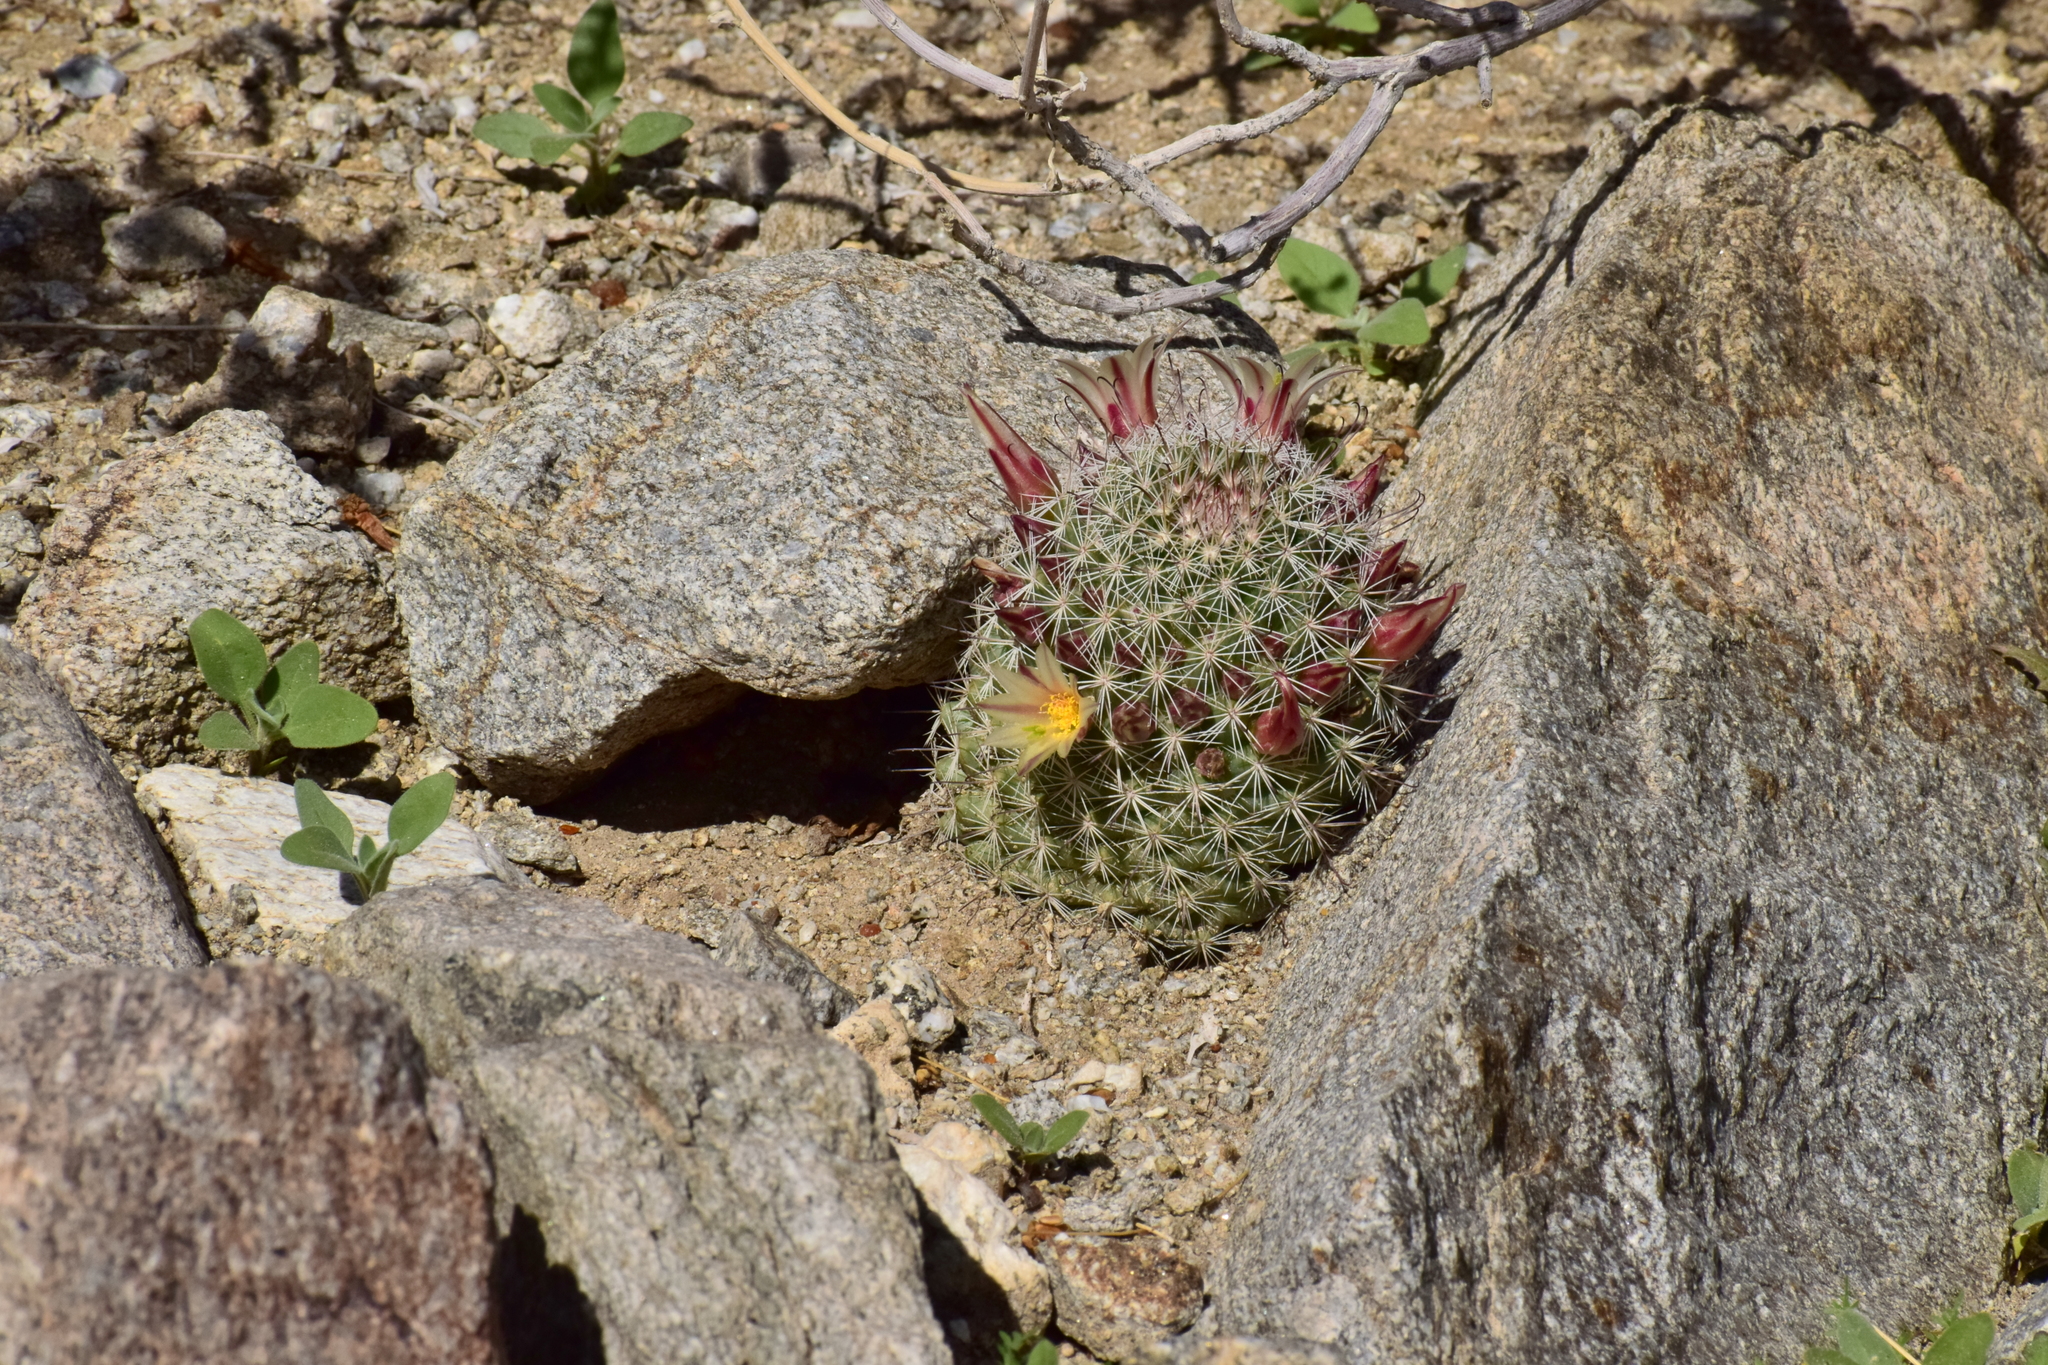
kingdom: Plantae
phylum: Tracheophyta
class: Magnoliopsida
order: Caryophyllales
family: Cactaceae
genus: Cochemiea
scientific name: Cochemiea dioica
